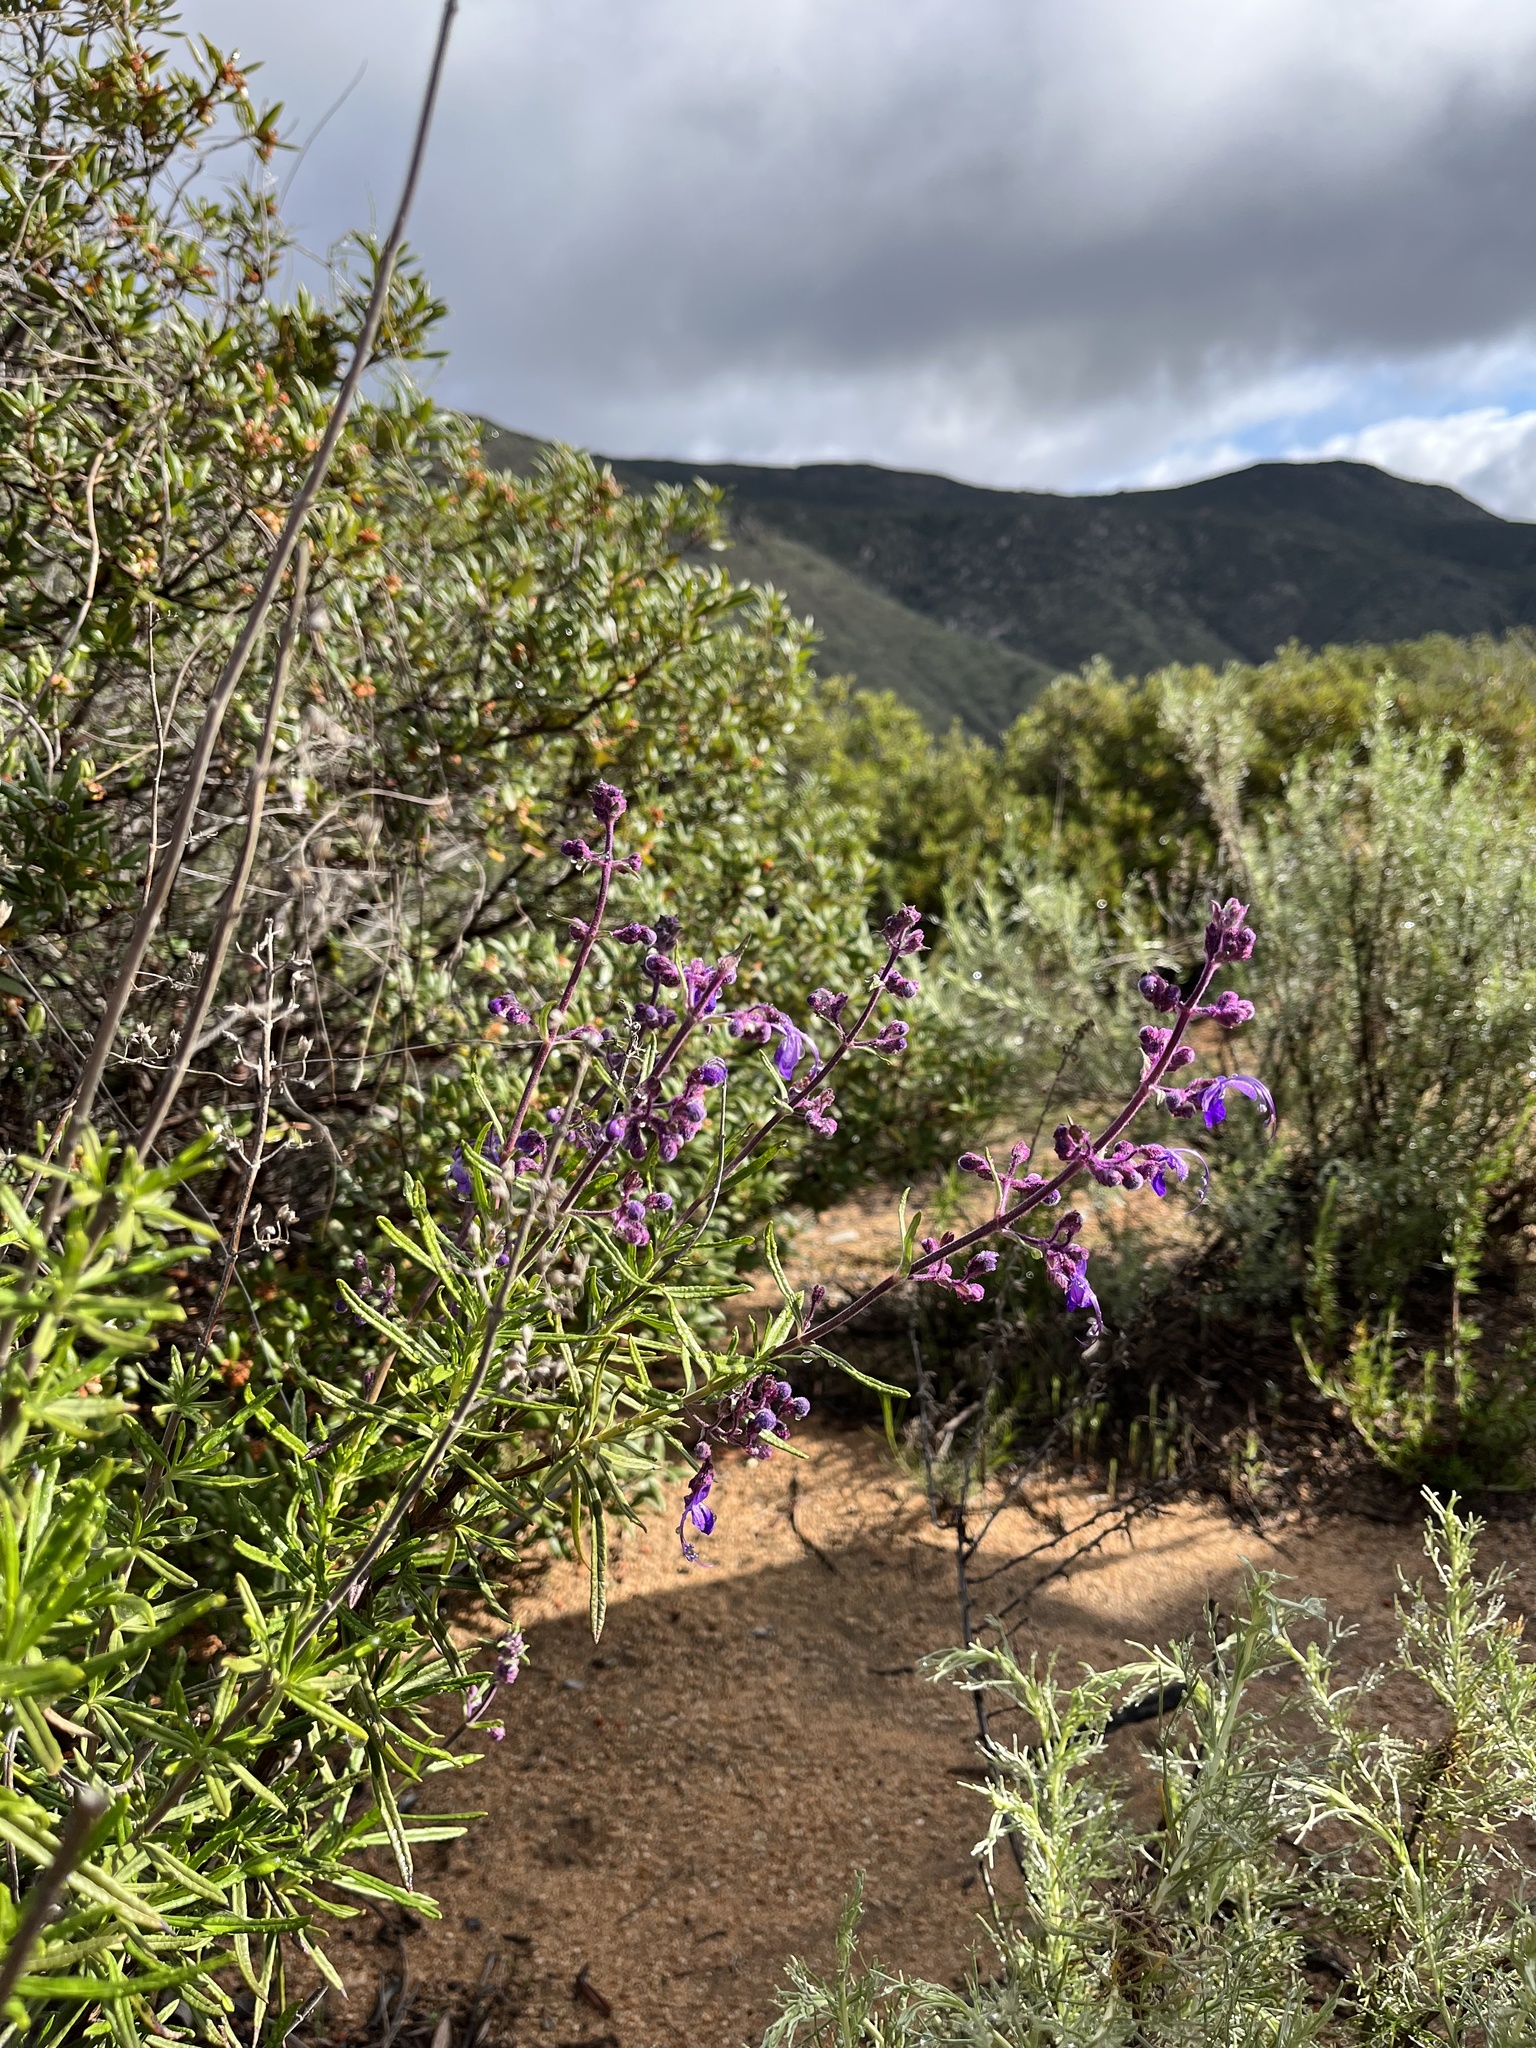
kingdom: Plantae
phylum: Tracheophyta
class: Magnoliopsida
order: Lamiales
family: Lamiaceae
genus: Trichostema
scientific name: Trichostema parishii
